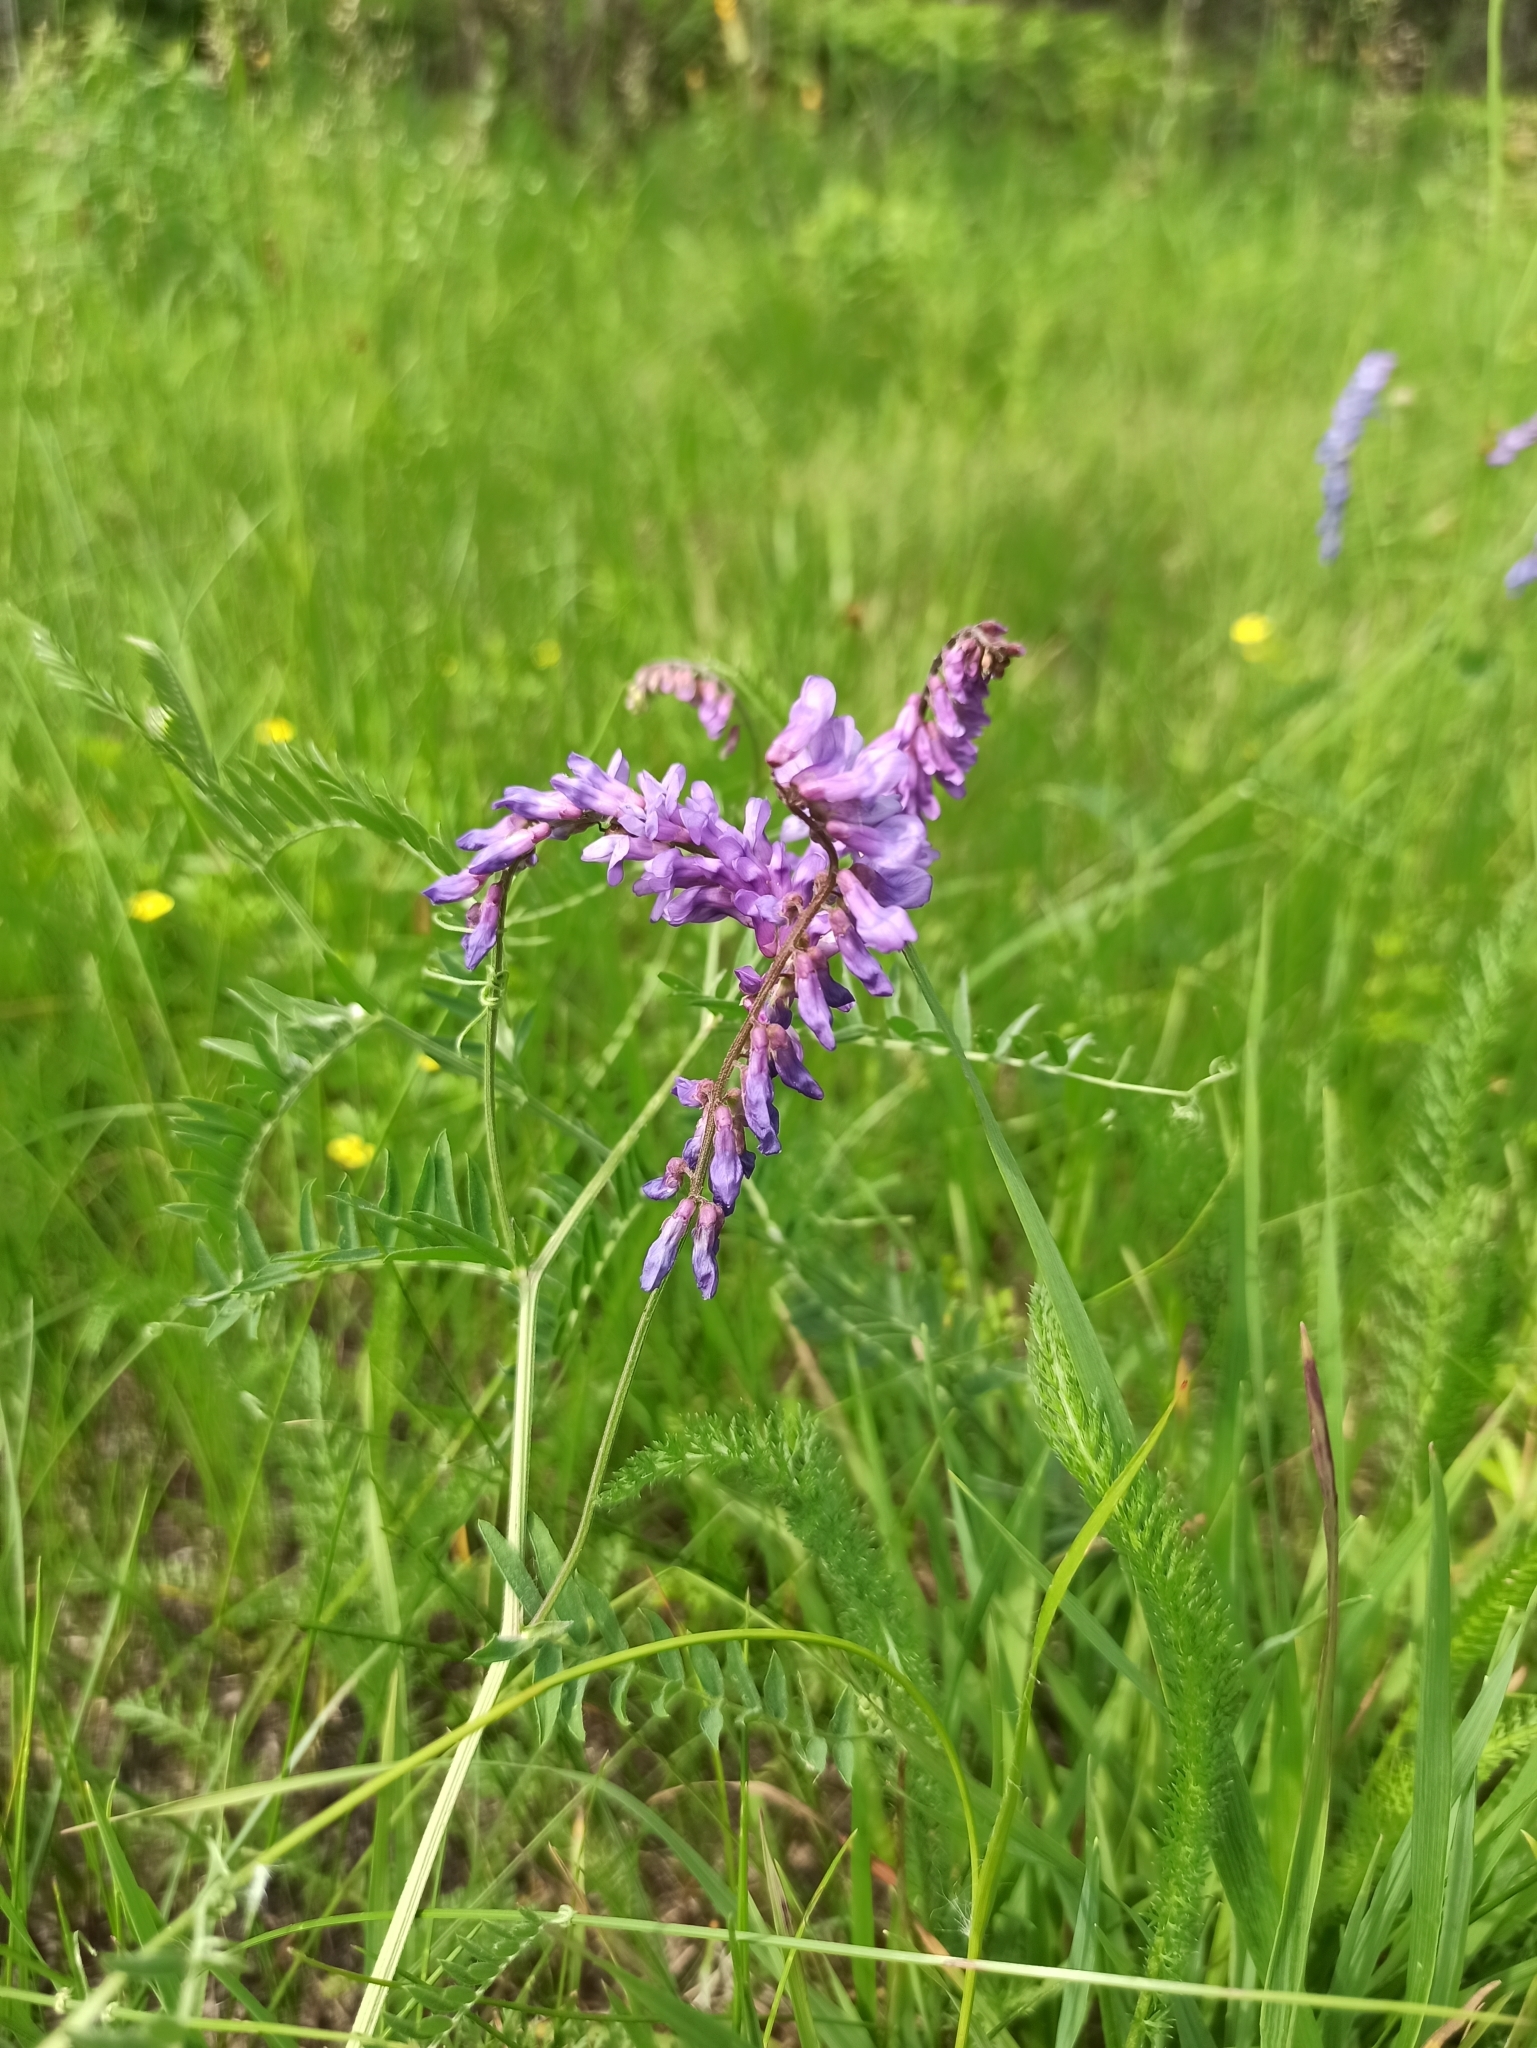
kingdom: Plantae
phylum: Tracheophyta
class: Magnoliopsida
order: Fabales
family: Fabaceae
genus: Vicia
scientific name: Vicia cracca
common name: Bird vetch
